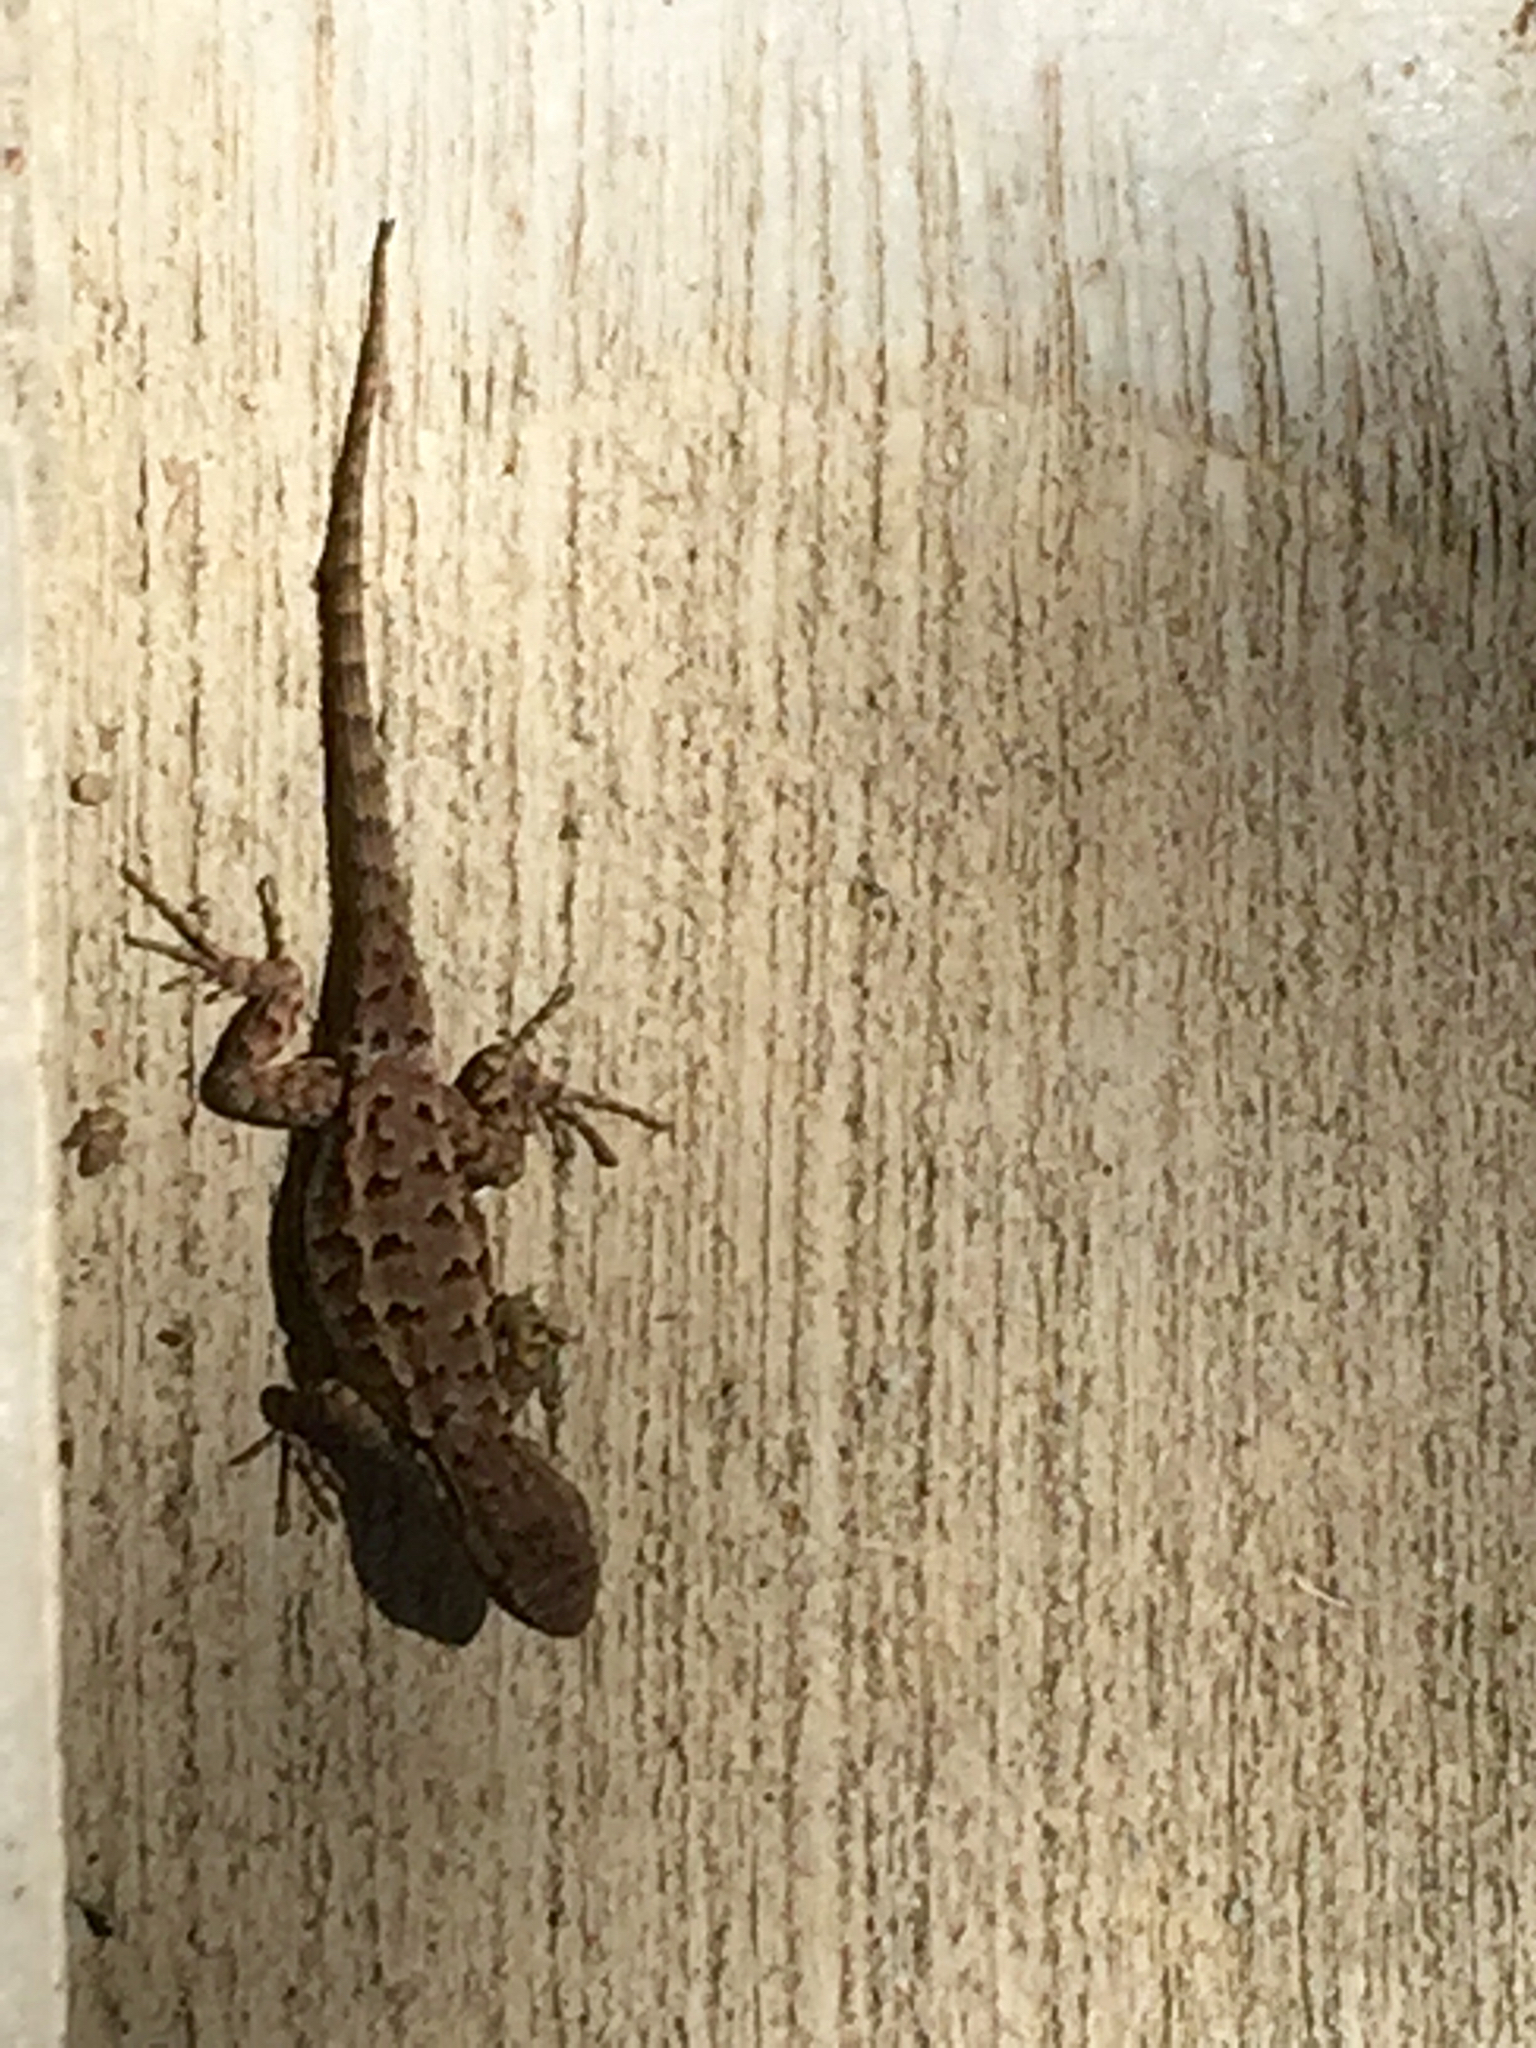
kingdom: Animalia
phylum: Chordata
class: Squamata
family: Phrynosomatidae
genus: Sceloporus
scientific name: Sceloporus occidentalis
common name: Western fence lizard
